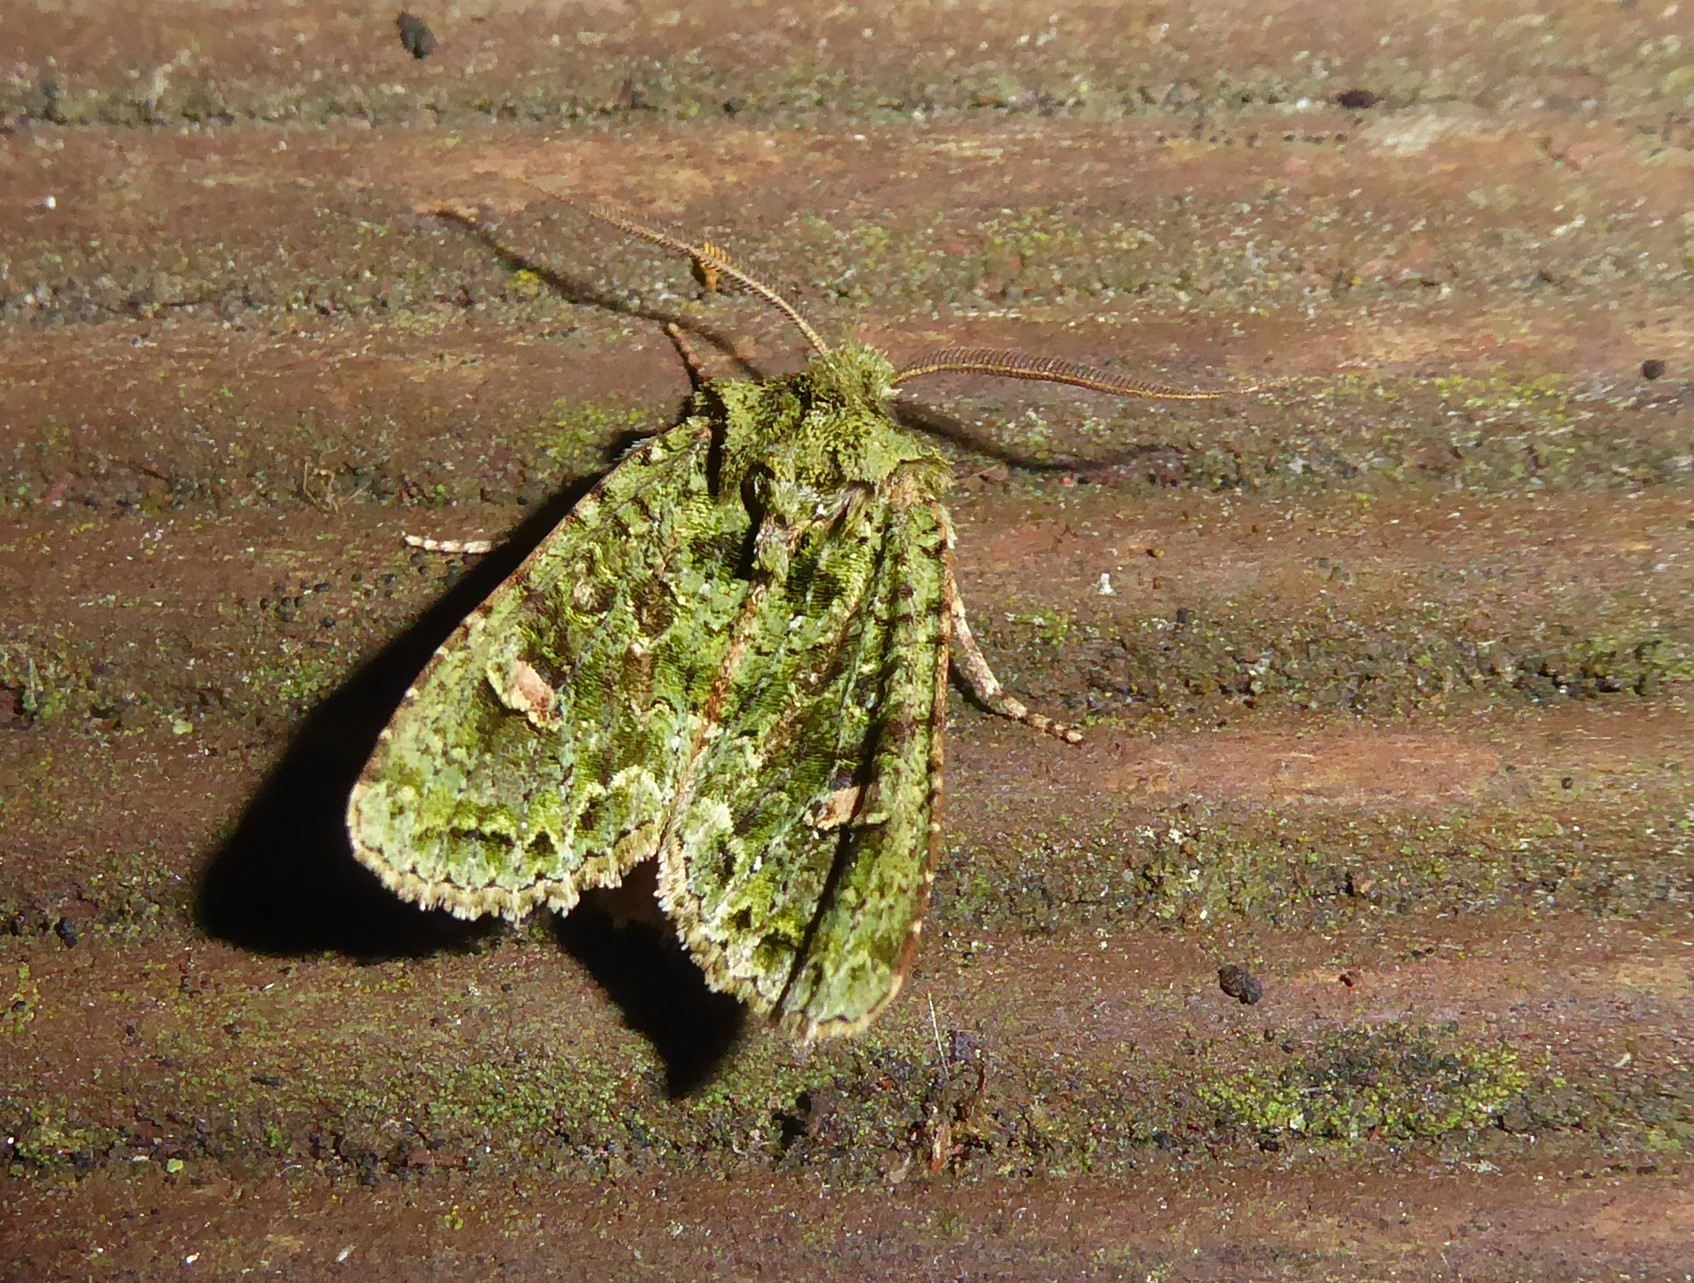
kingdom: Animalia
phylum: Arthropoda
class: Insecta
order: Lepidoptera
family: Noctuidae
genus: Ichneutica
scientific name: Ichneutica
